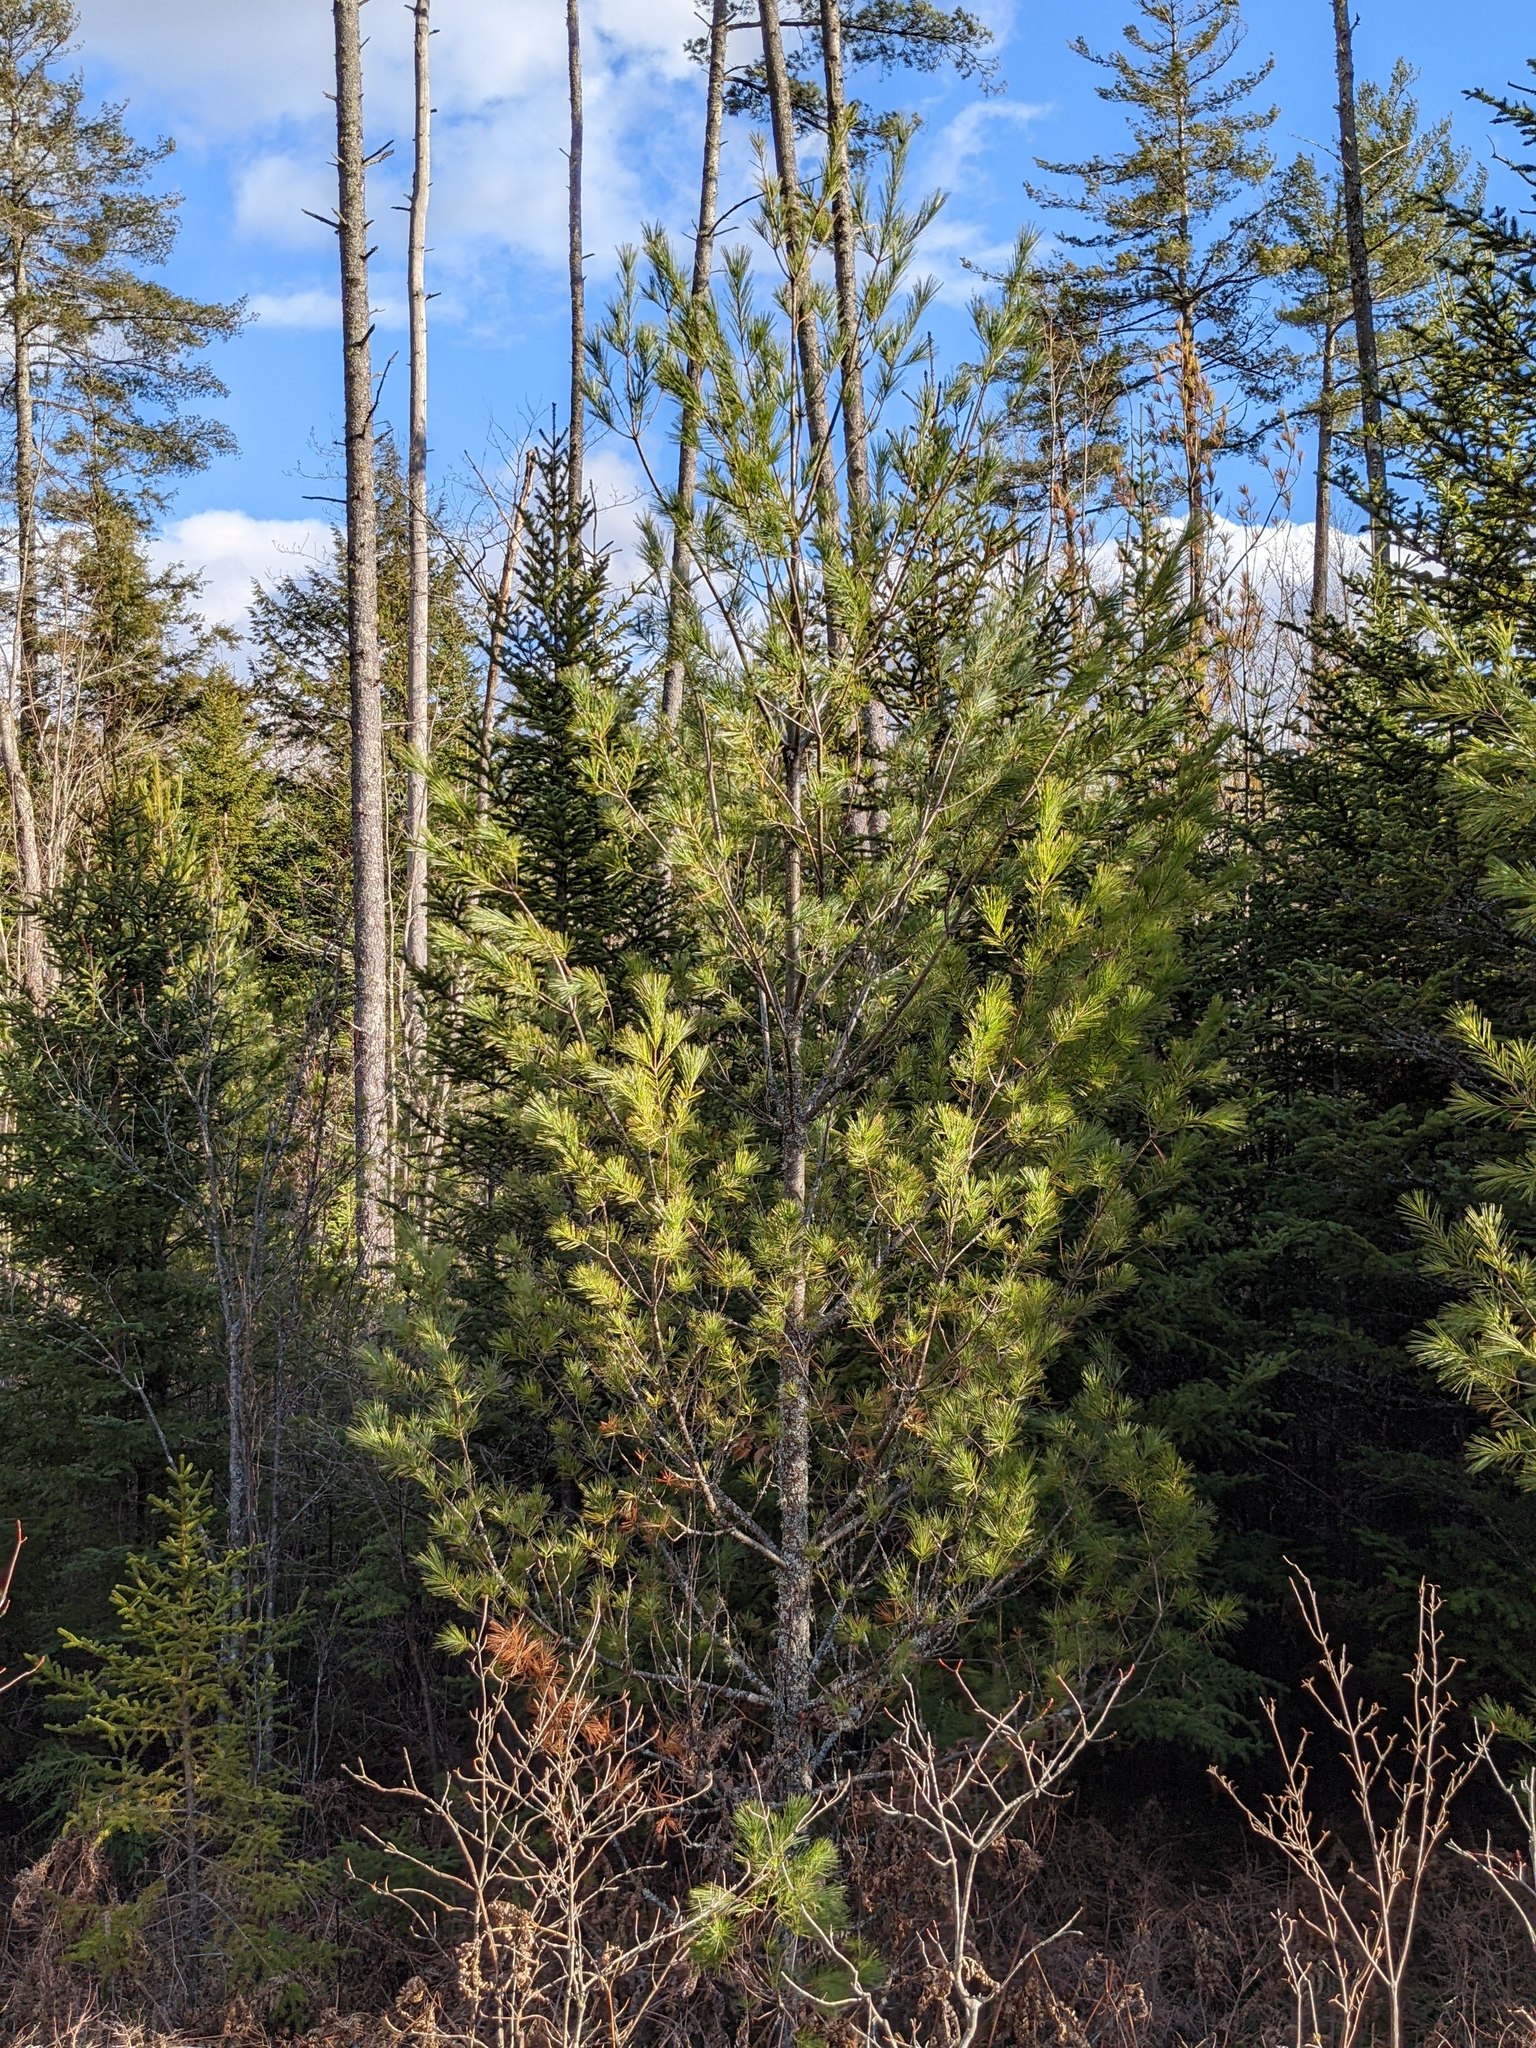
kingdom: Plantae
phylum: Tracheophyta
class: Pinopsida
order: Pinales
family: Pinaceae
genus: Pinus
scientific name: Pinus strobus
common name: Weymouth pine
